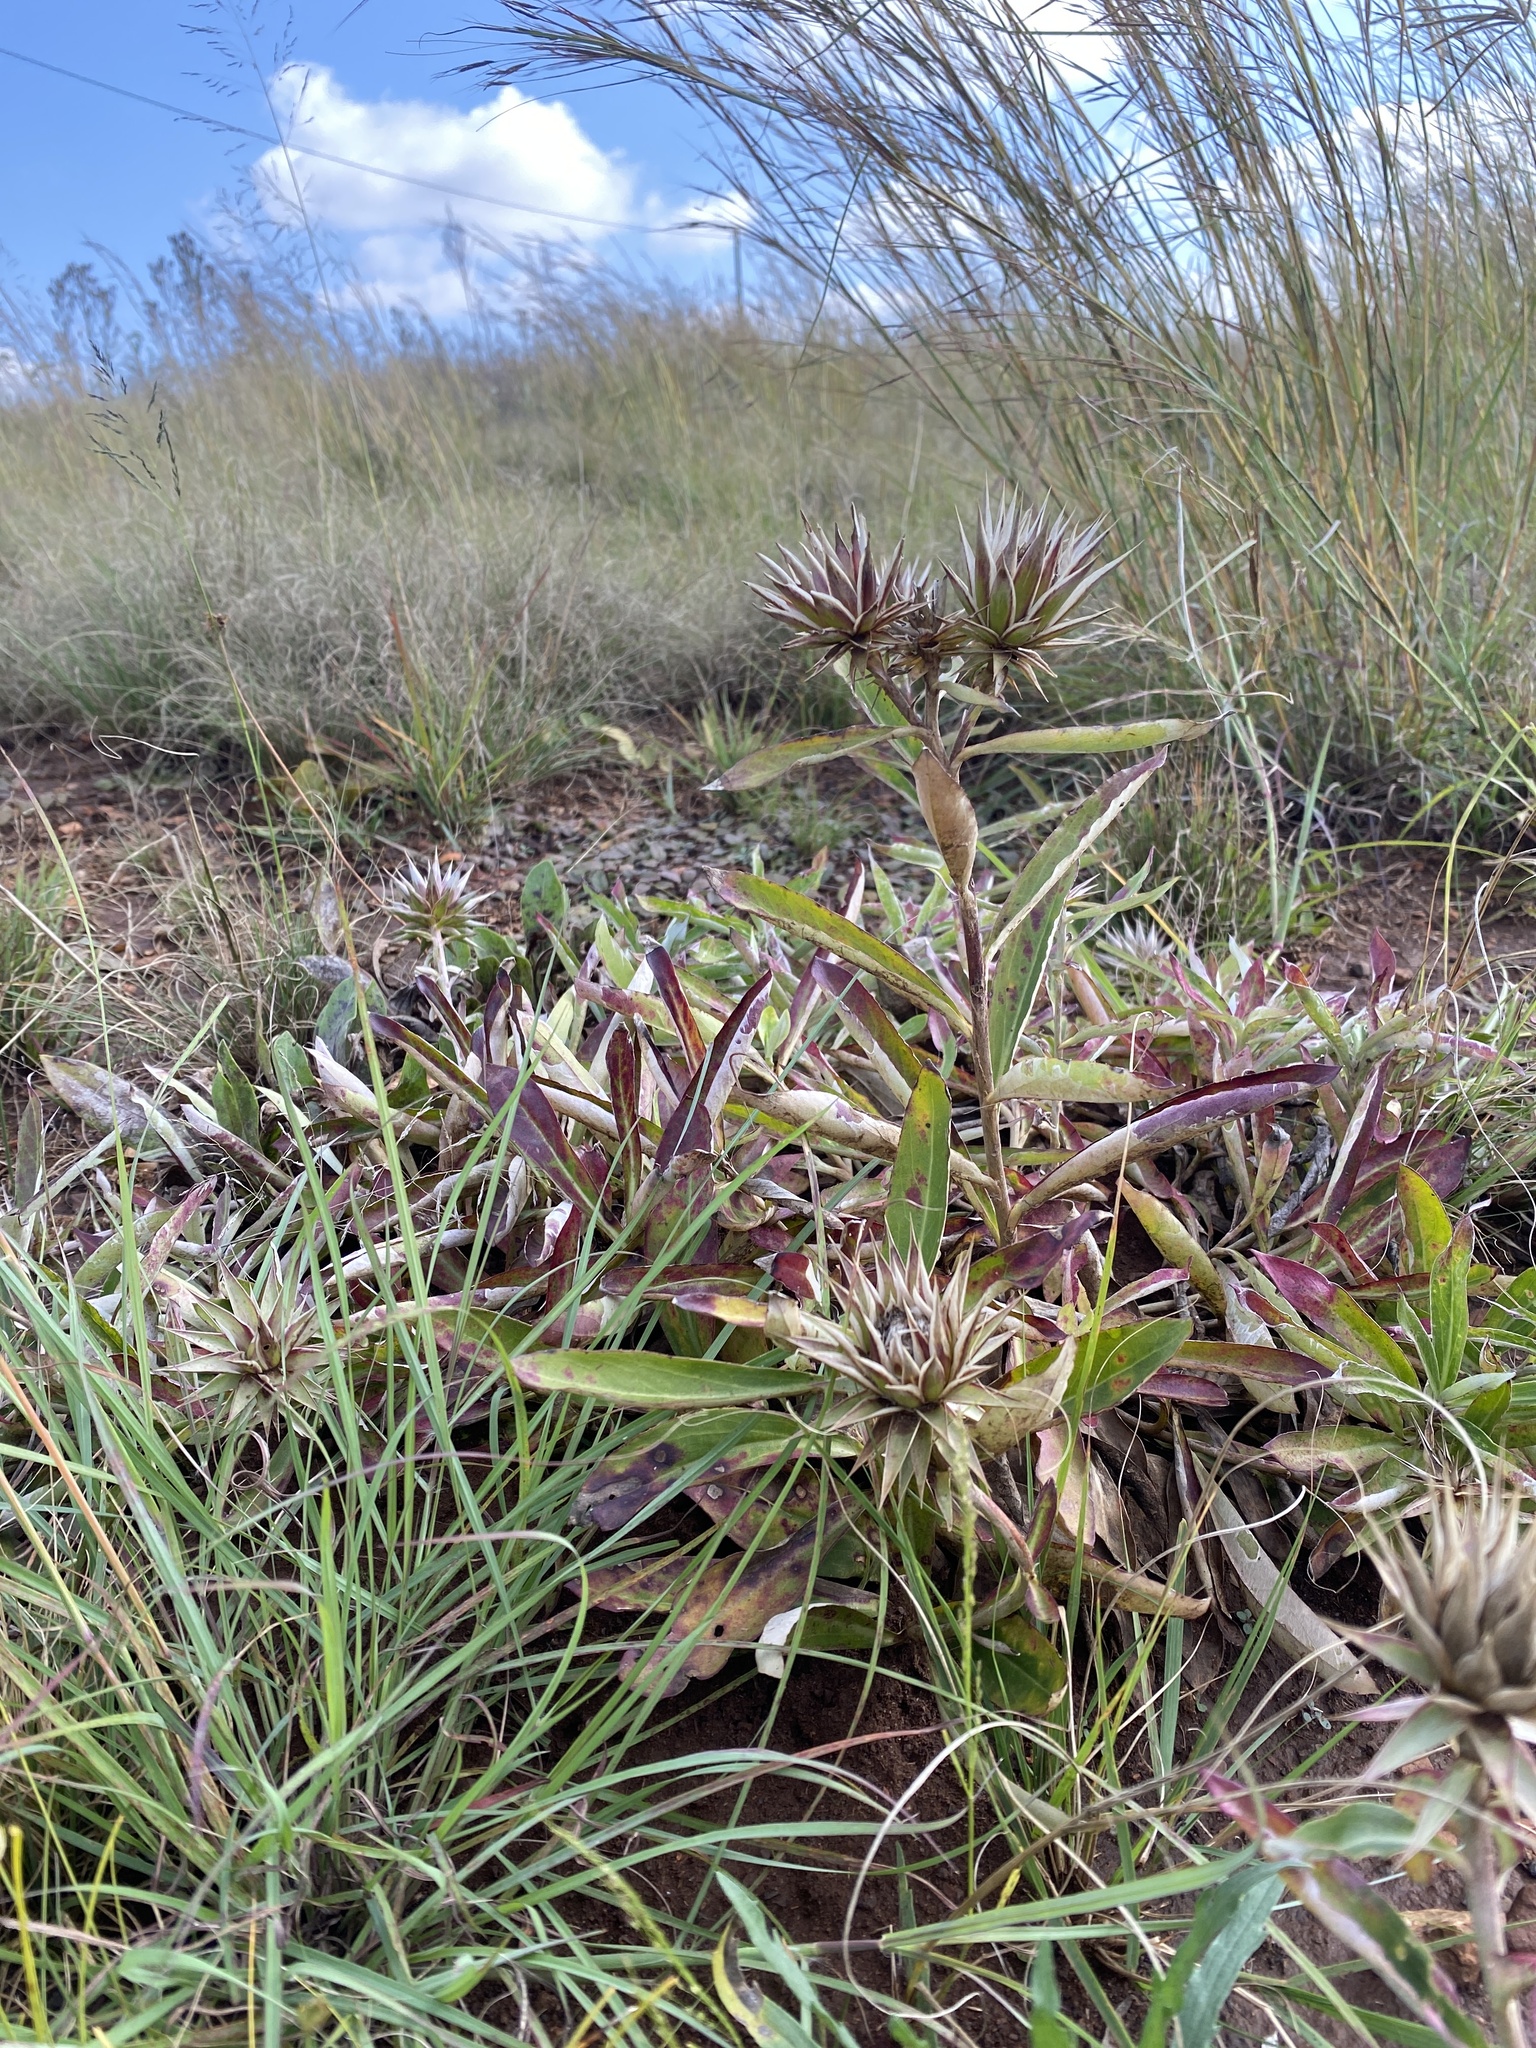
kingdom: Plantae
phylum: Tracheophyta
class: Magnoliopsida
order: Asterales
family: Asteraceae
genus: Macledium
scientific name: Macledium zeyheri
